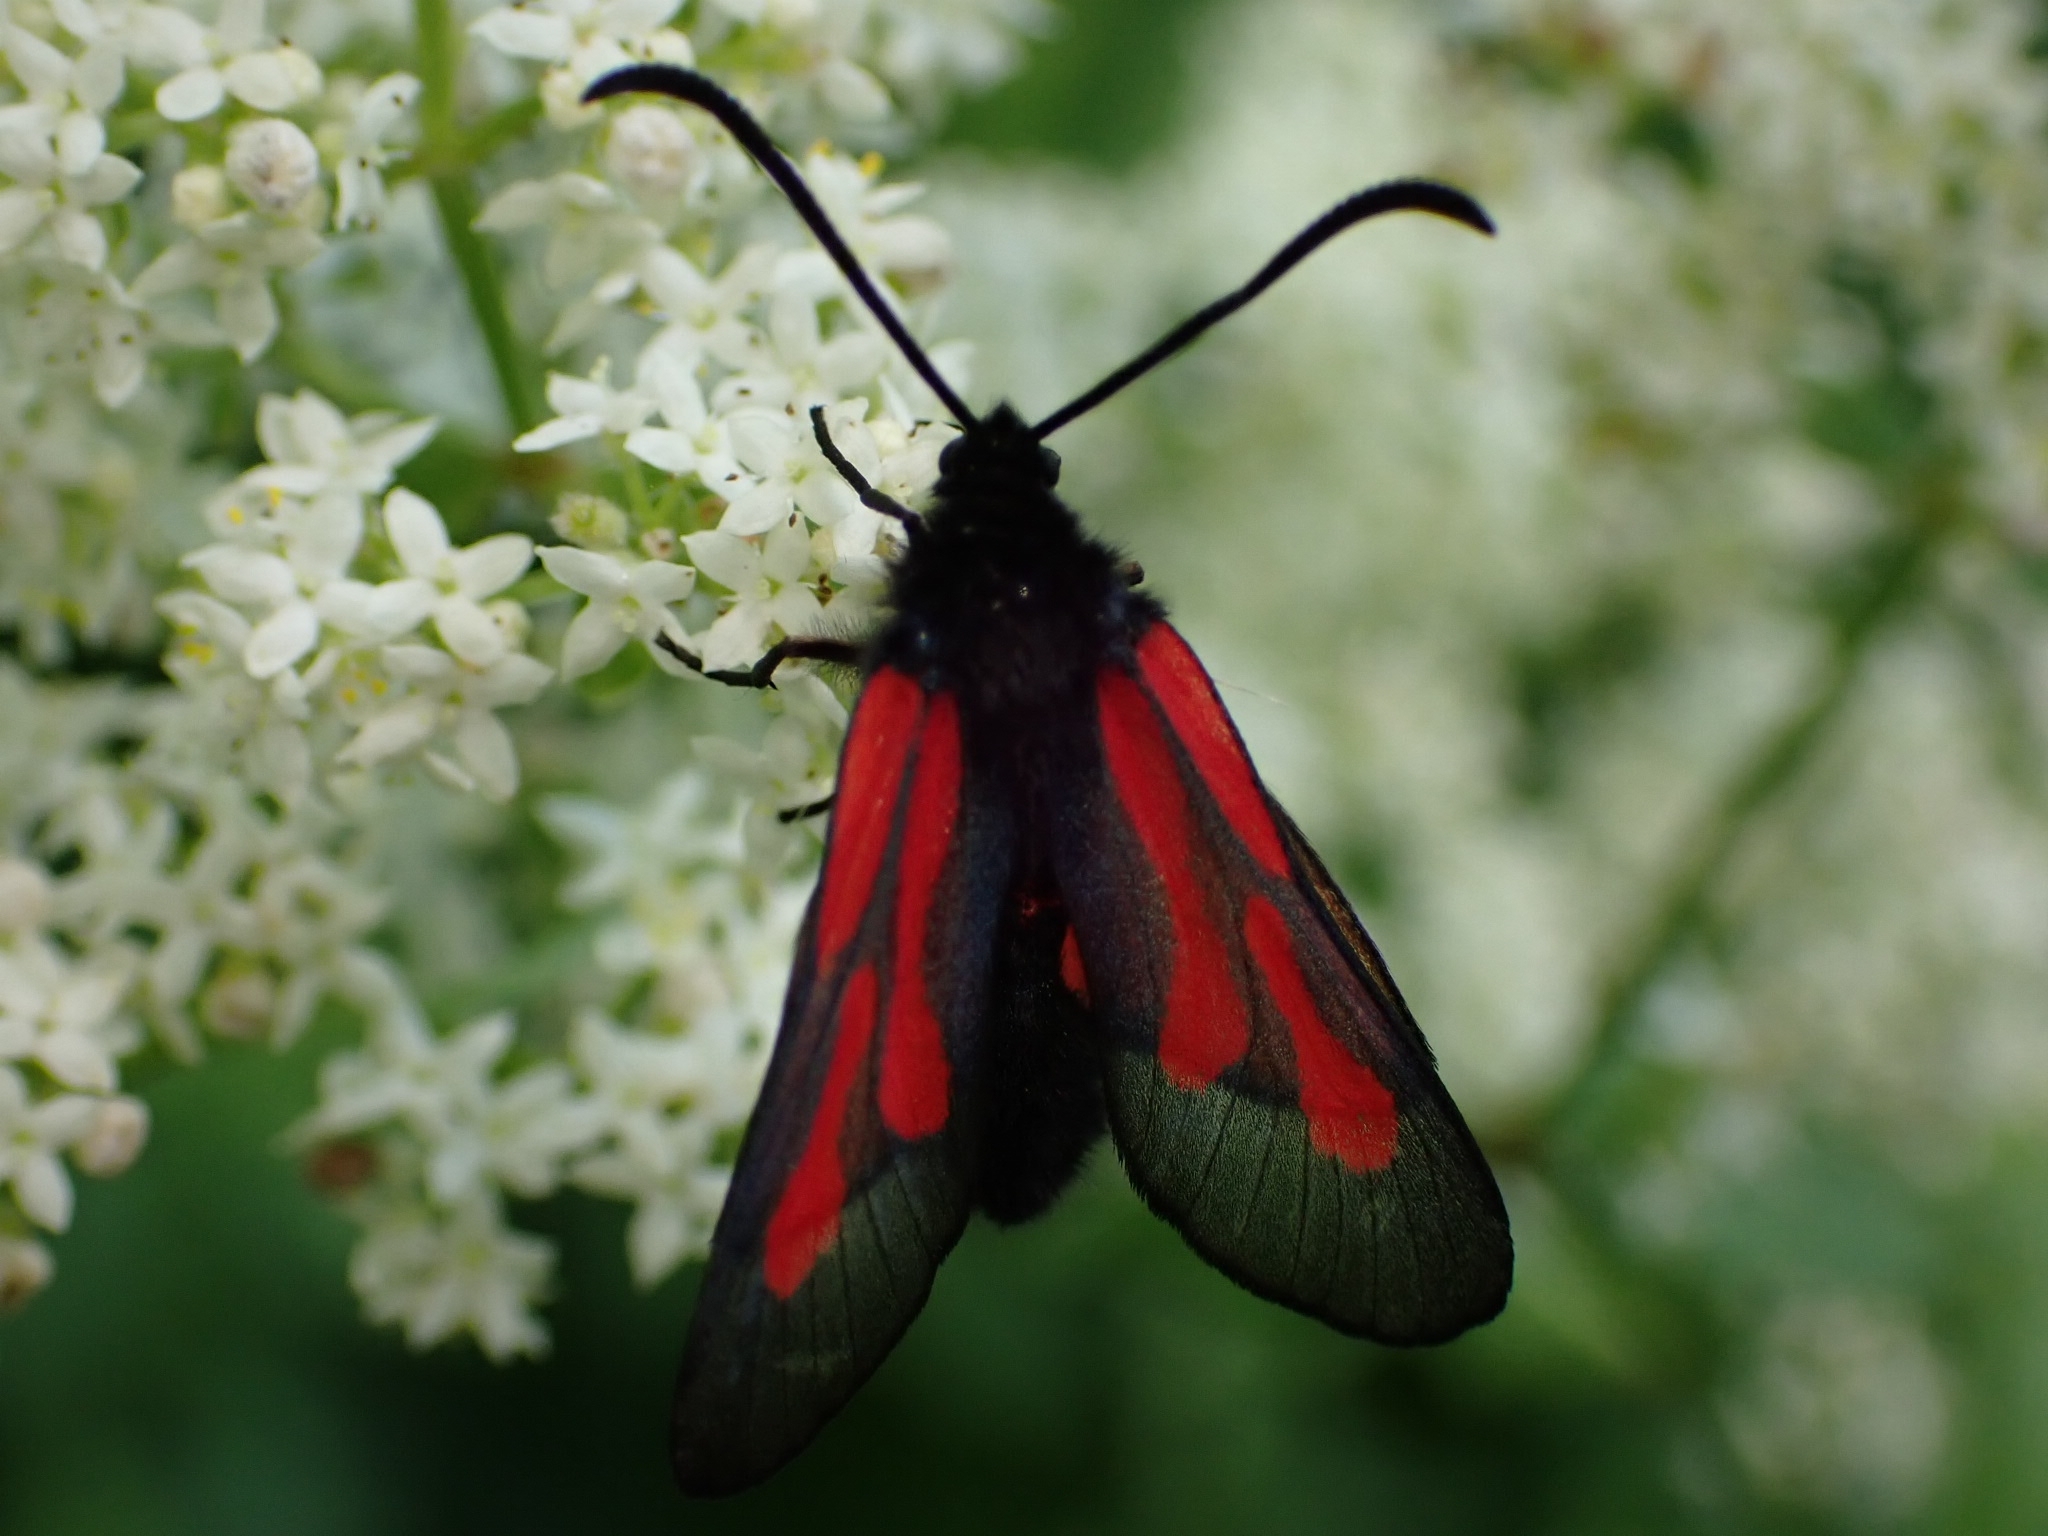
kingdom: Animalia
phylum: Arthropoda
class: Insecta
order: Lepidoptera
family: Zygaenidae
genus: Zygaena
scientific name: Zygaena osterodensis
